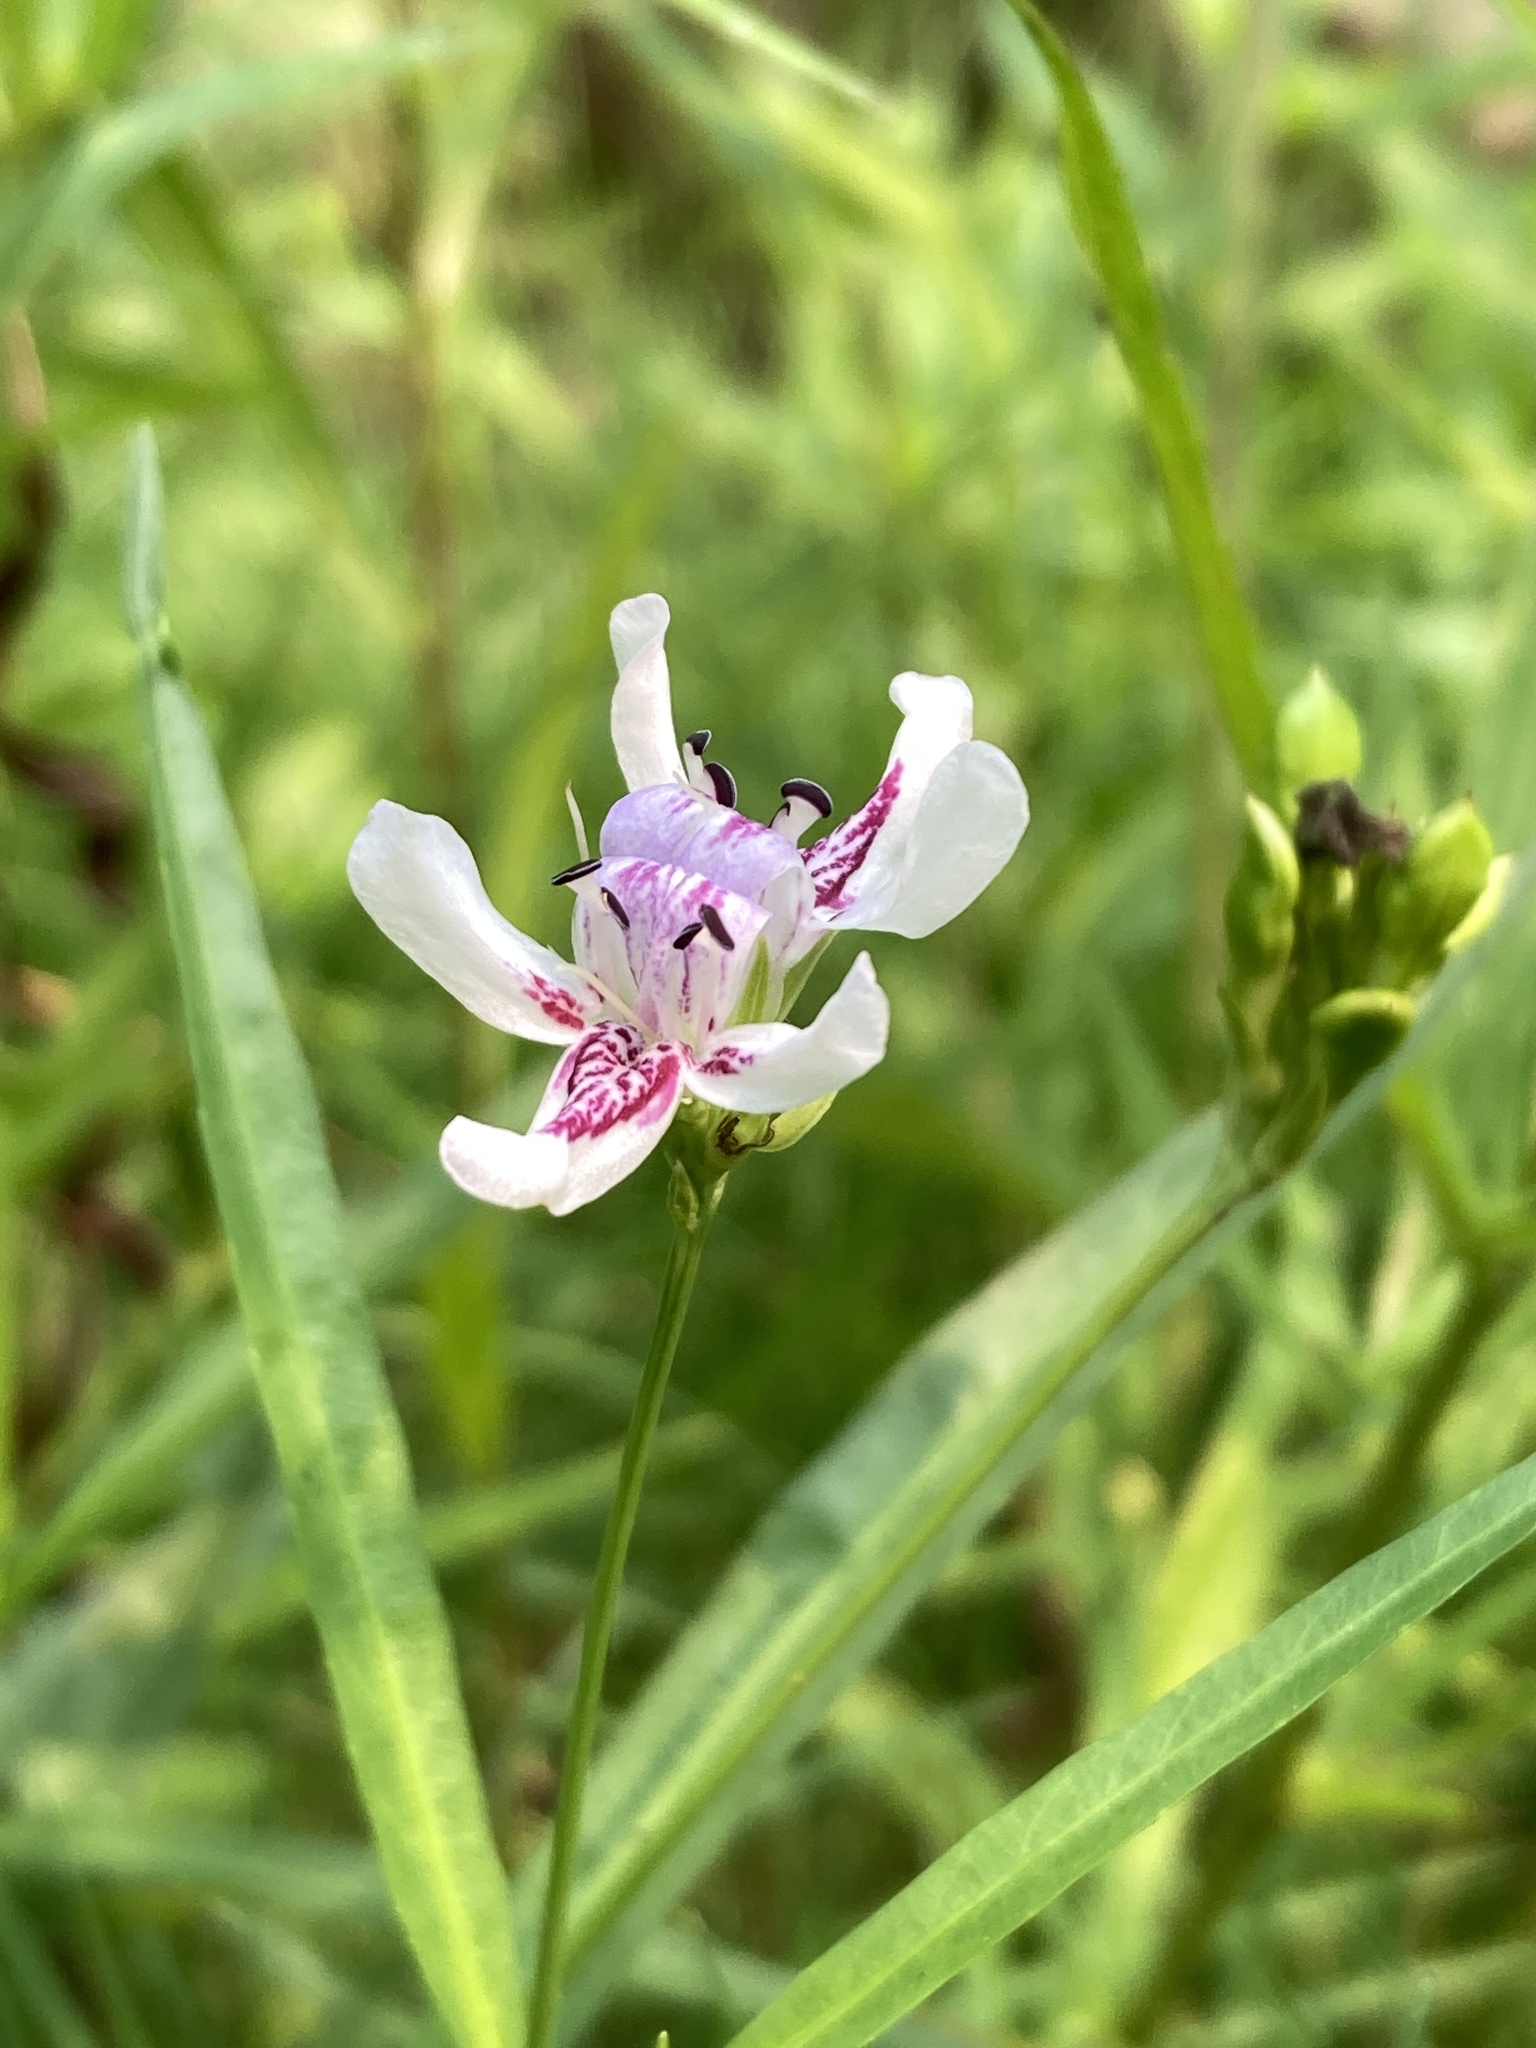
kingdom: Plantae
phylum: Tracheophyta
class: Magnoliopsida
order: Lamiales
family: Acanthaceae
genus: Dianthera
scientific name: Dianthera americana
